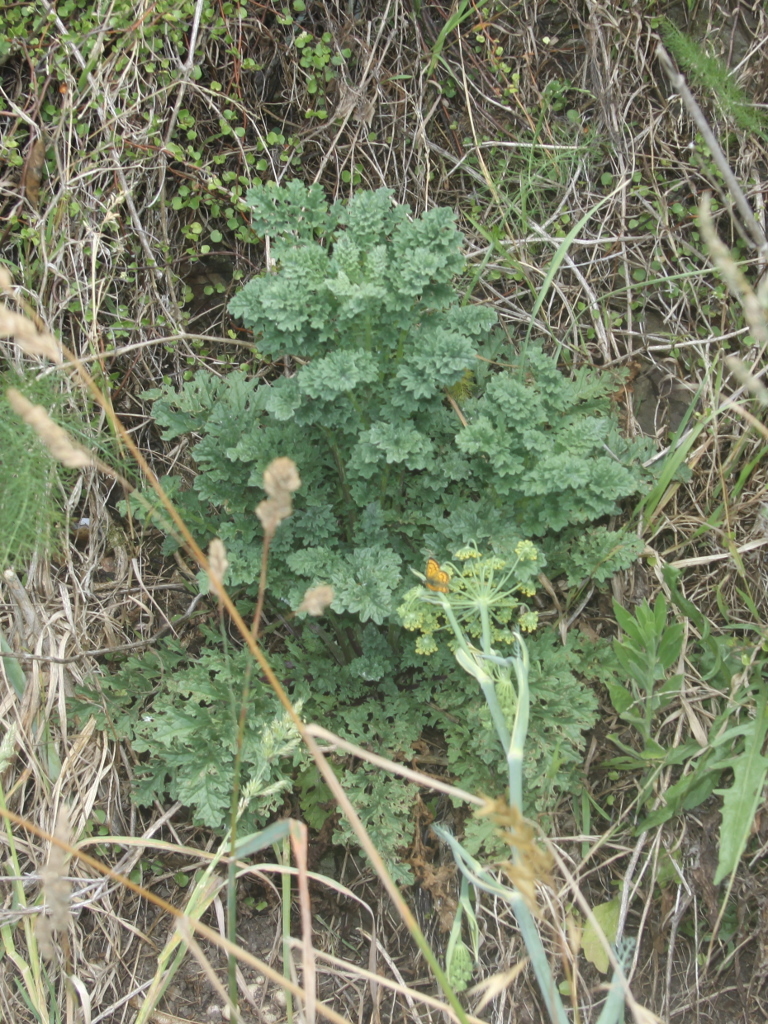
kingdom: Plantae
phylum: Tracheophyta
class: Magnoliopsida
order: Asterales
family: Asteraceae
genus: Jacobaea
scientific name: Jacobaea vulgaris
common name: Stinking willie
